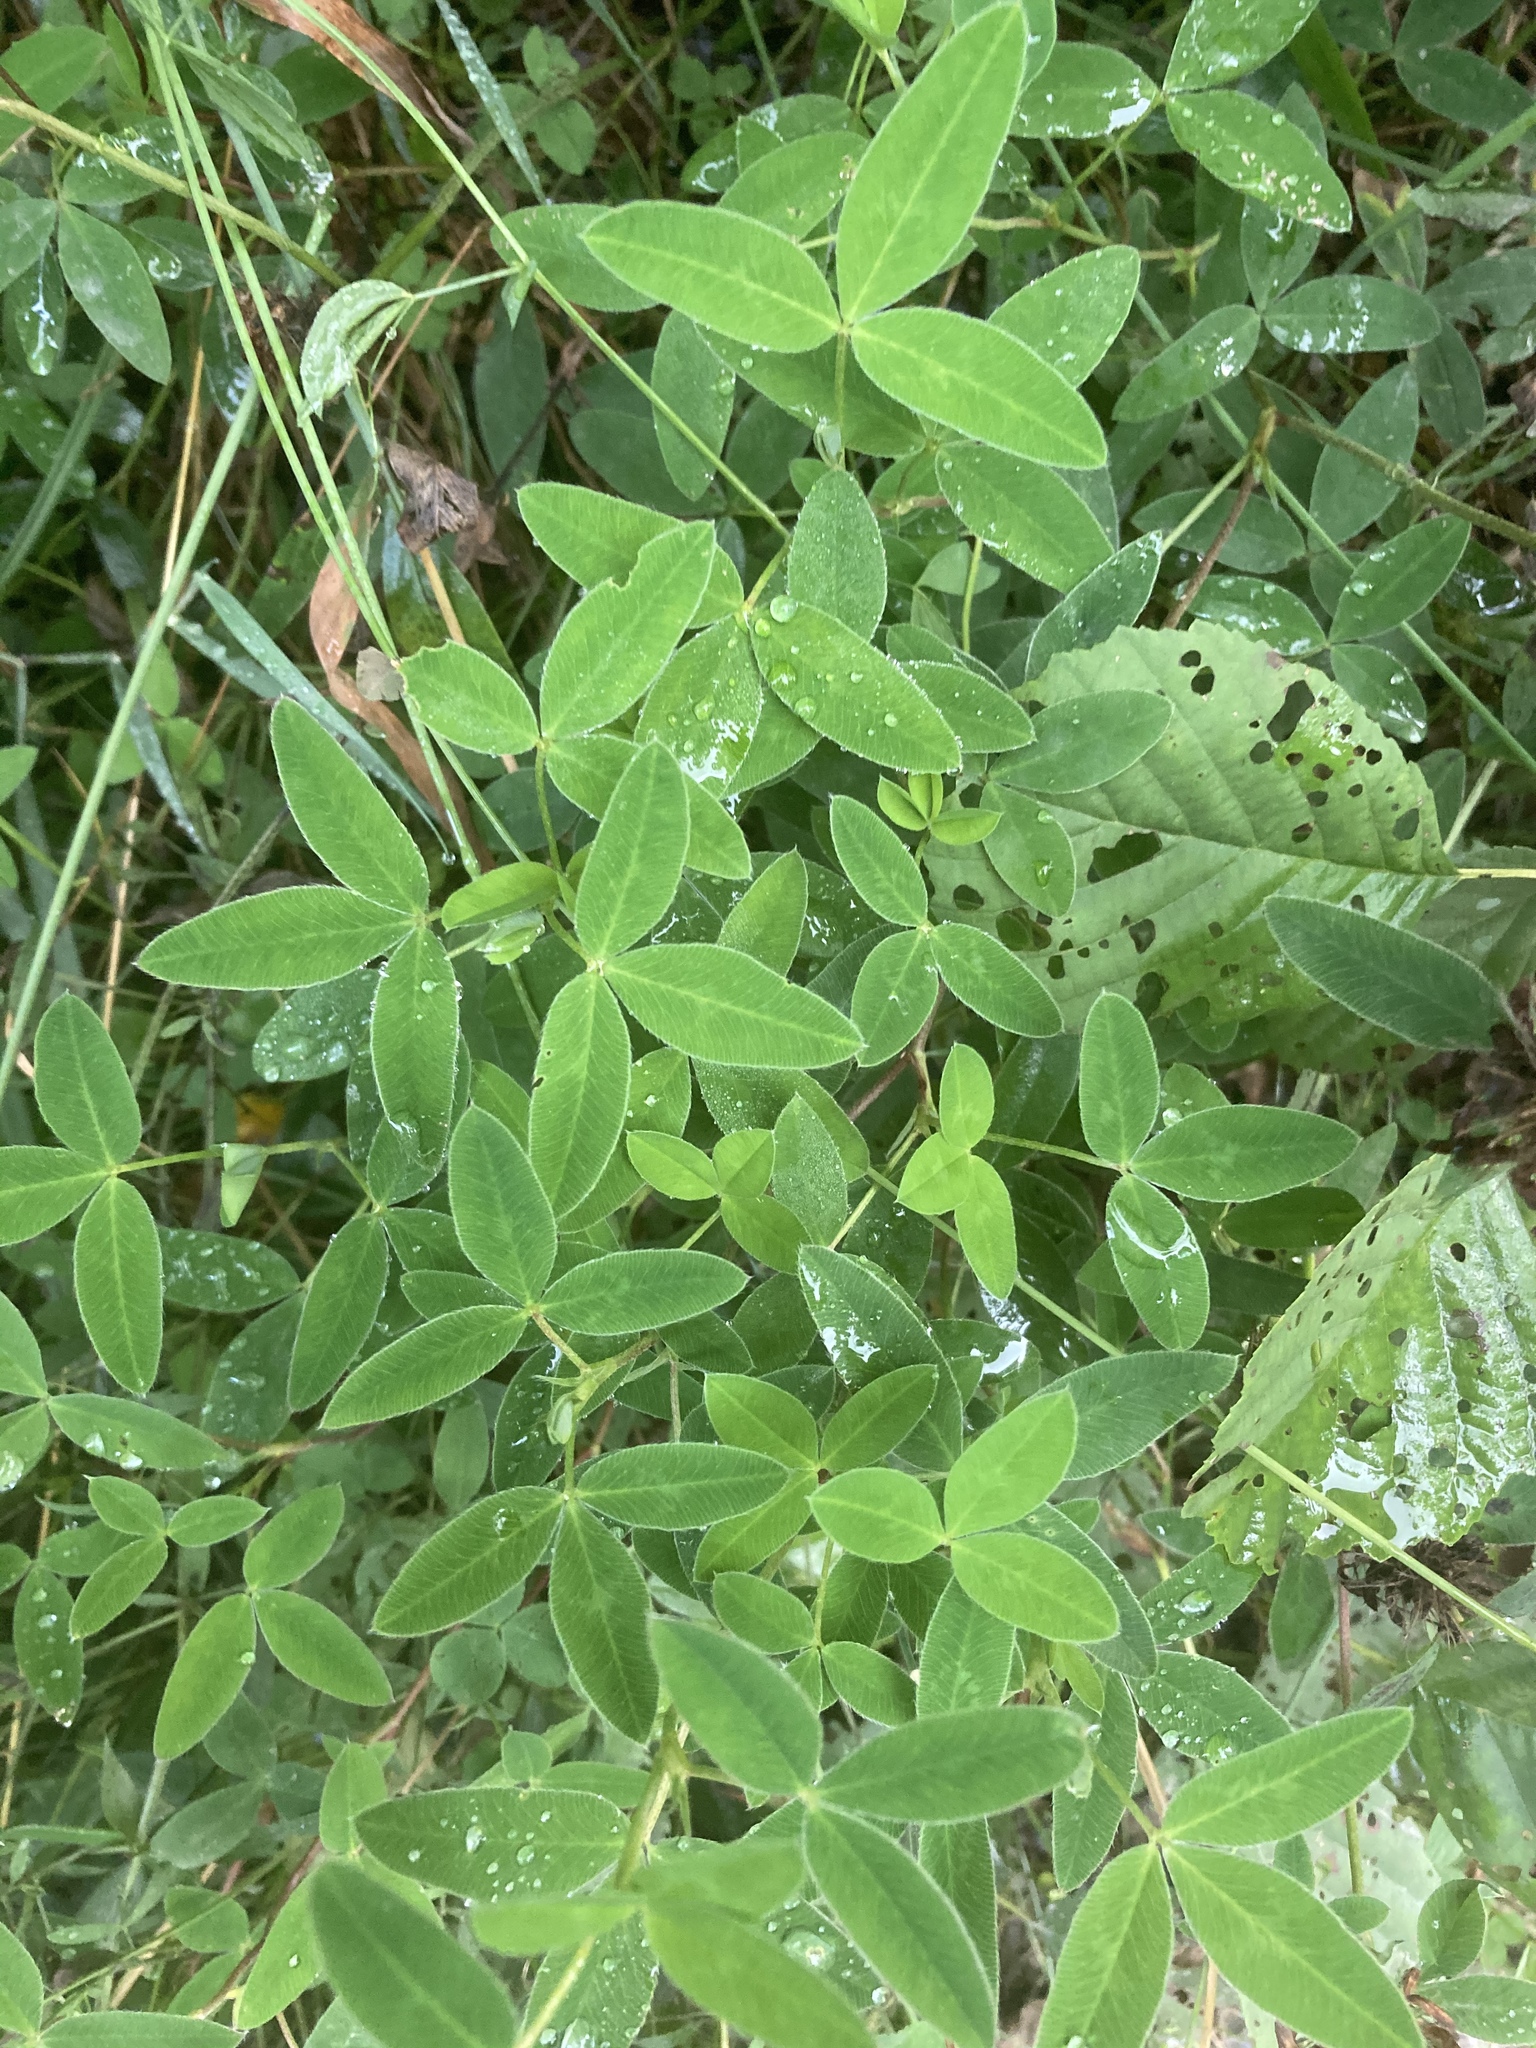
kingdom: Plantae
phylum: Tracheophyta
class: Magnoliopsida
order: Fabales
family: Fabaceae
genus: Trifolium
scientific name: Trifolium medium
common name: Zigzag clover
